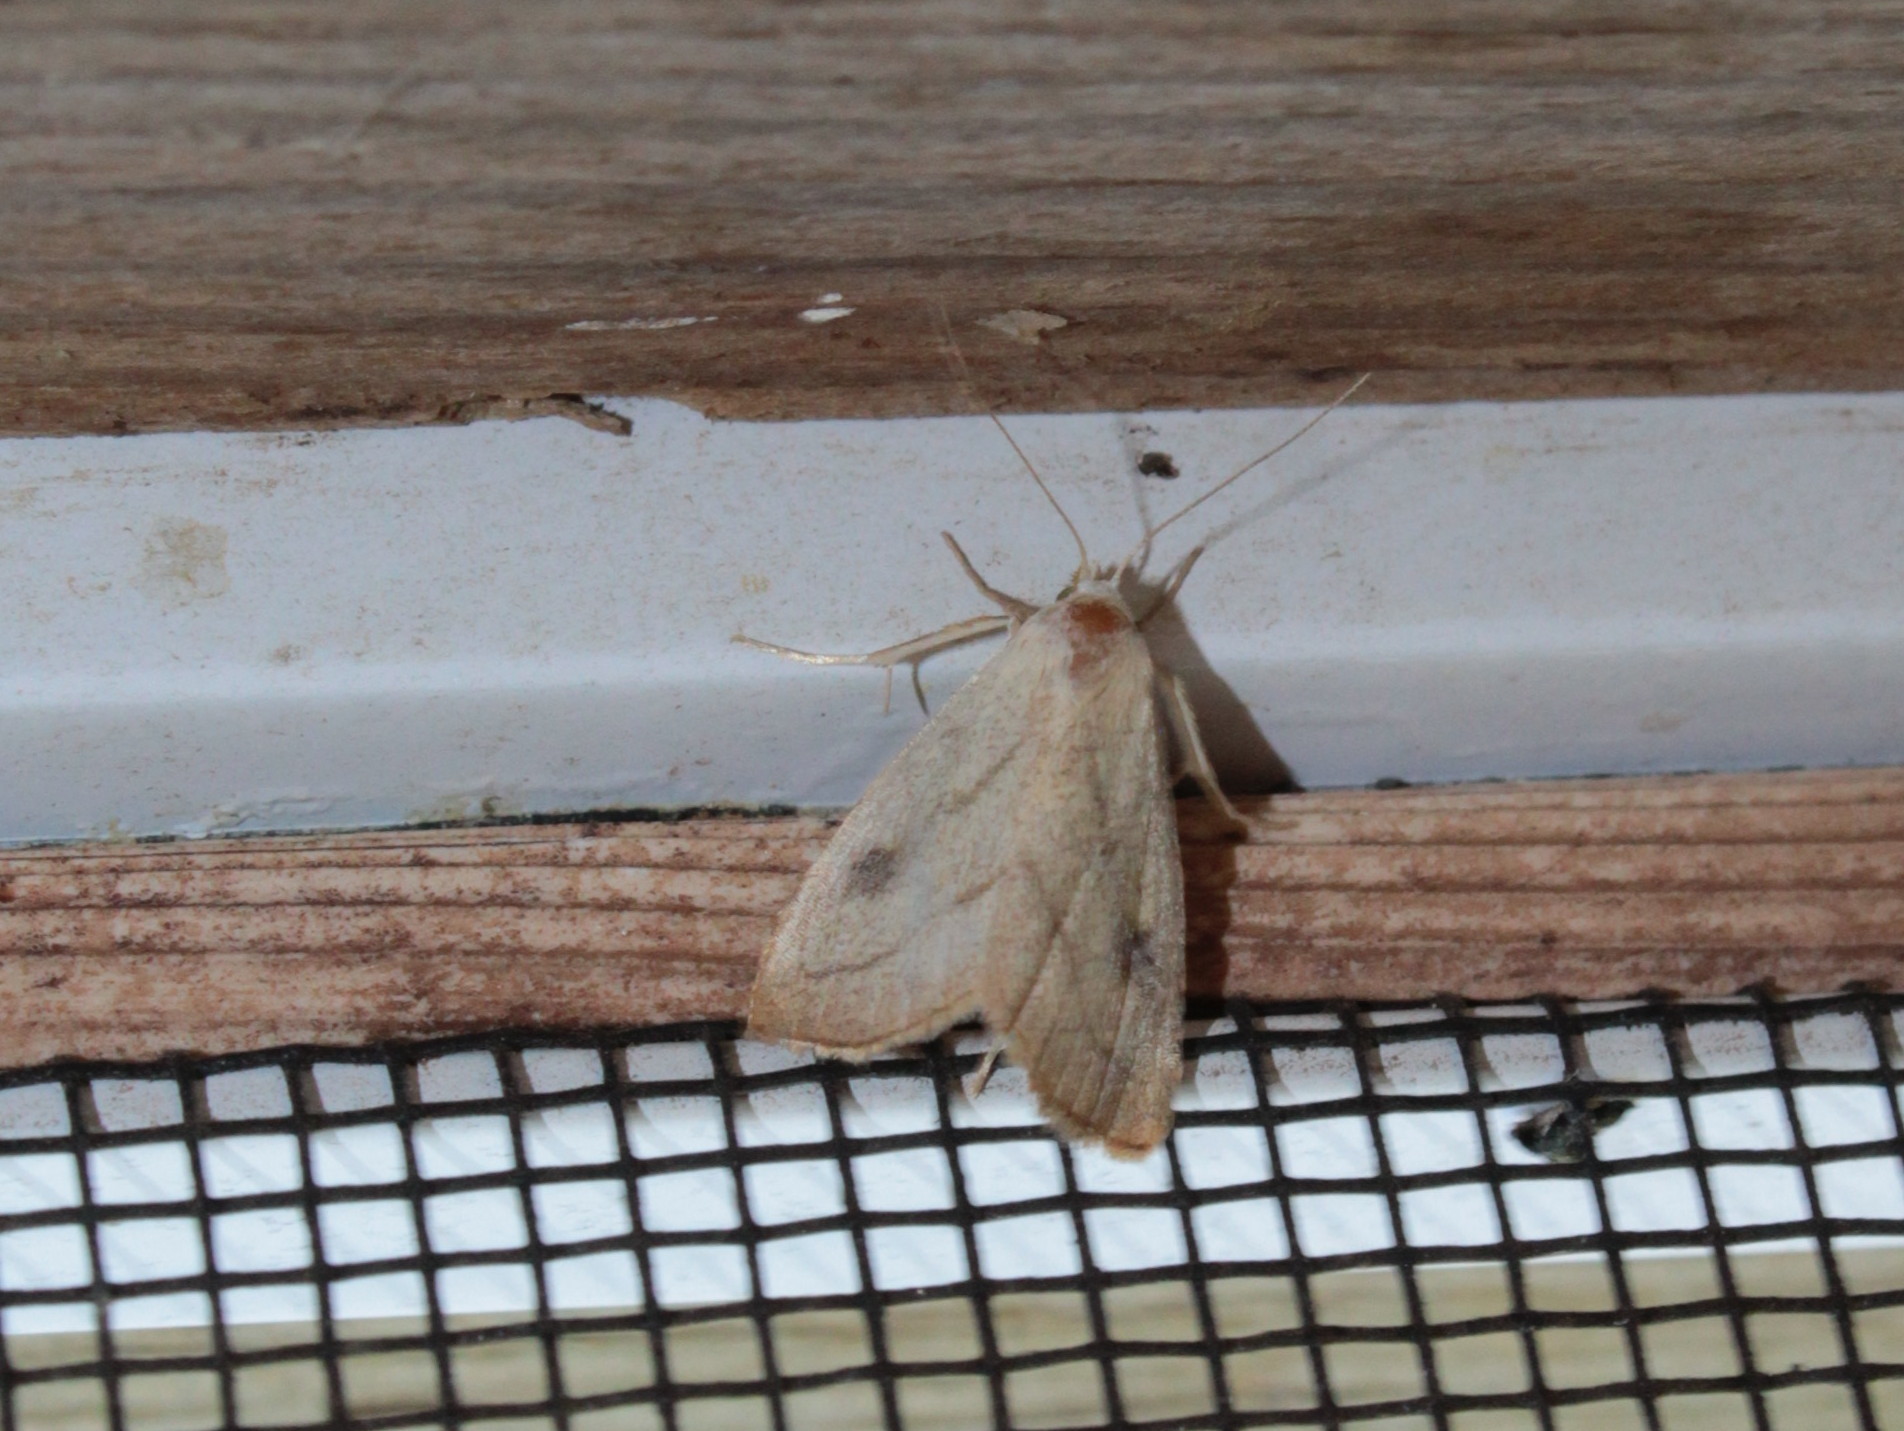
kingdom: Animalia
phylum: Arthropoda
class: Insecta
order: Lepidoptera
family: Erebidae
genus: Rivula
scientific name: Rivula propinqualis
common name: Spotted grass moth
